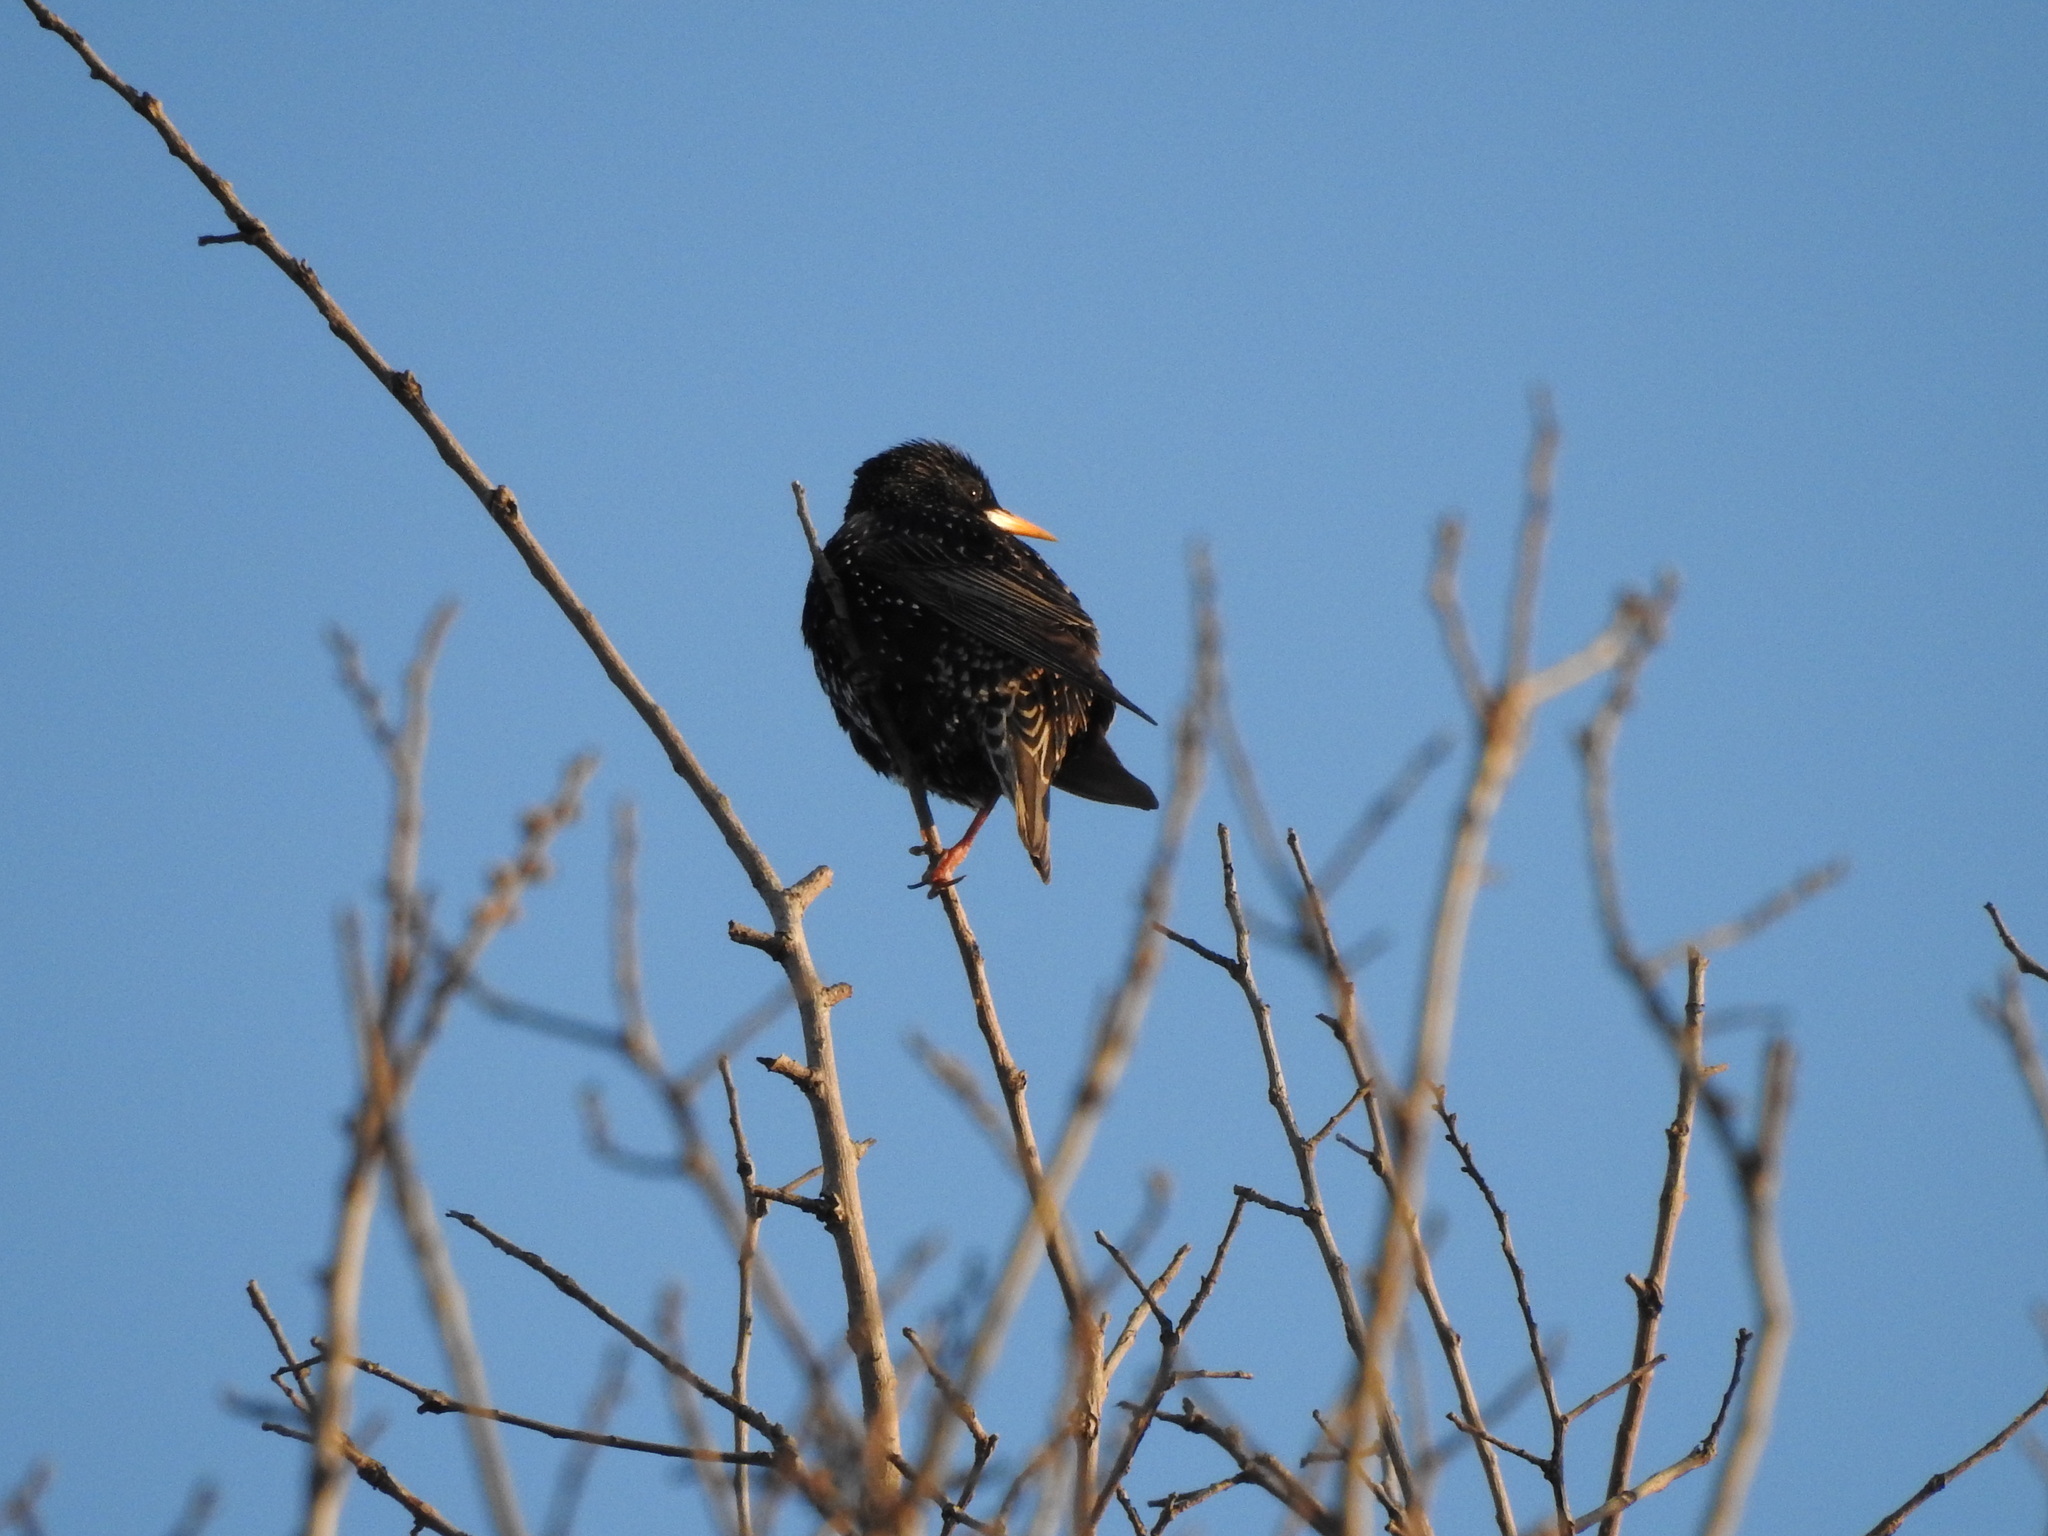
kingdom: Animalia
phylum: Chordata
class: Aves
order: Passeriformes
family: Sturnidae
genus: Sturnus
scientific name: Sturnus vulgaris
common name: Common starling
